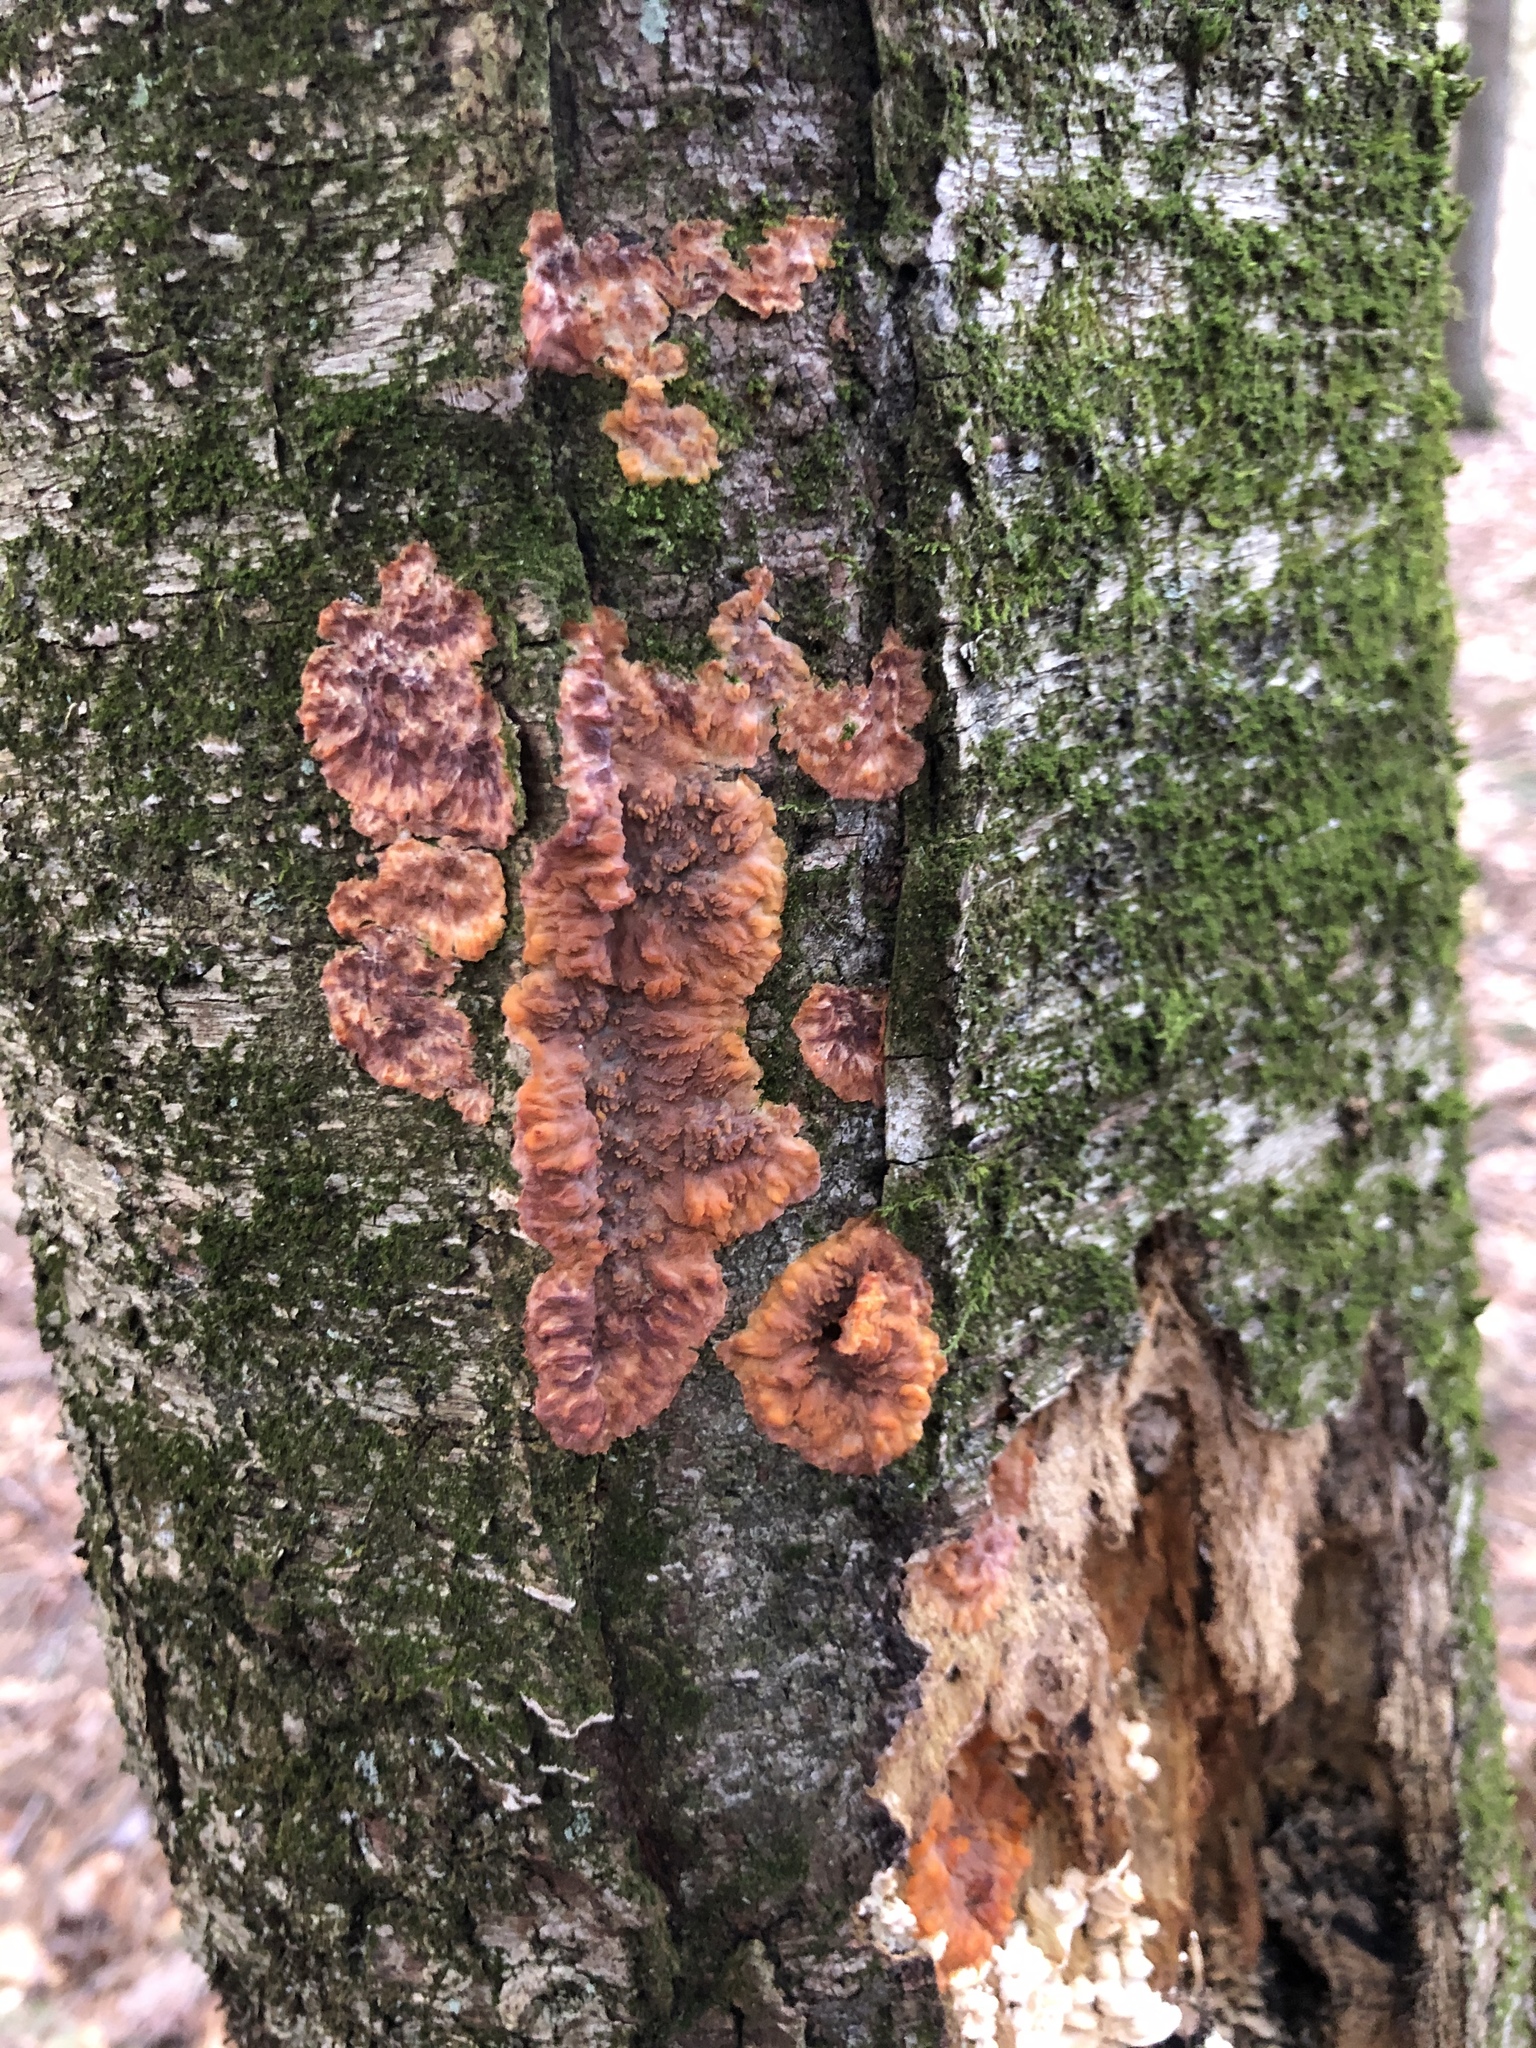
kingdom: Fungi
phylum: Basidiomycota
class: Agaricomycetes
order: Polyporales
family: Meruliaceae
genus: Phlebia
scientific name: Phlebia radiata
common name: Wrinkled crust
